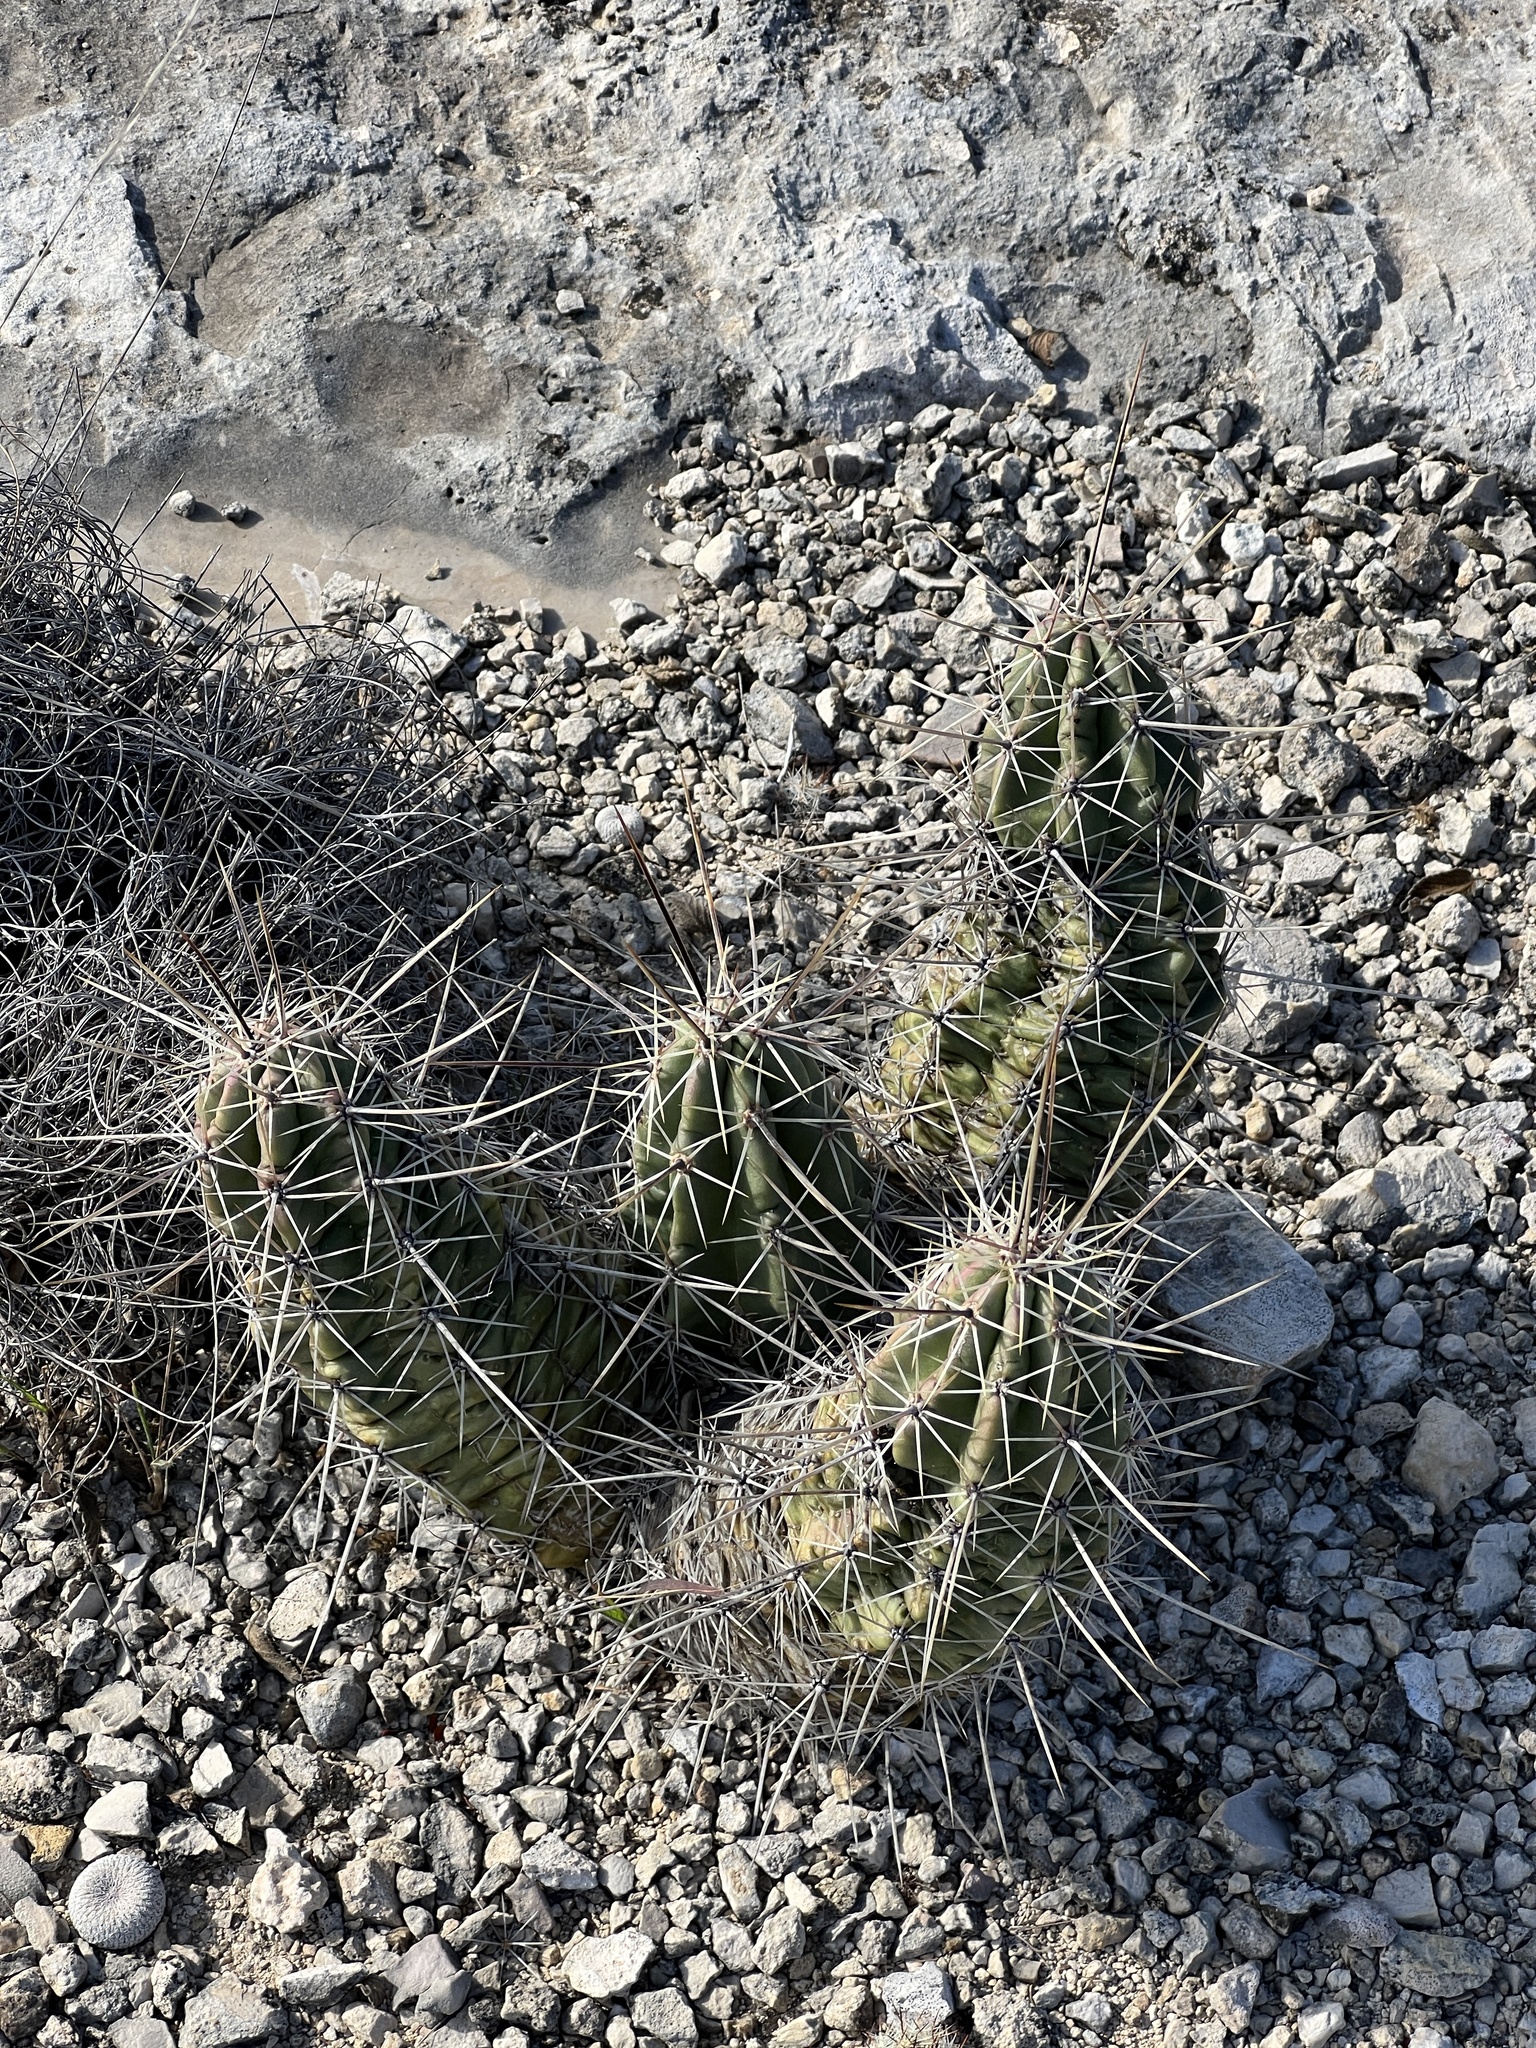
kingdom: Plantae
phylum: Tracheophyta
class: Magnoliopsida
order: Caryophyllales
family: Cactaceae
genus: Echinocereus
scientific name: Echinocereus enneacanthus
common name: Pitaya
